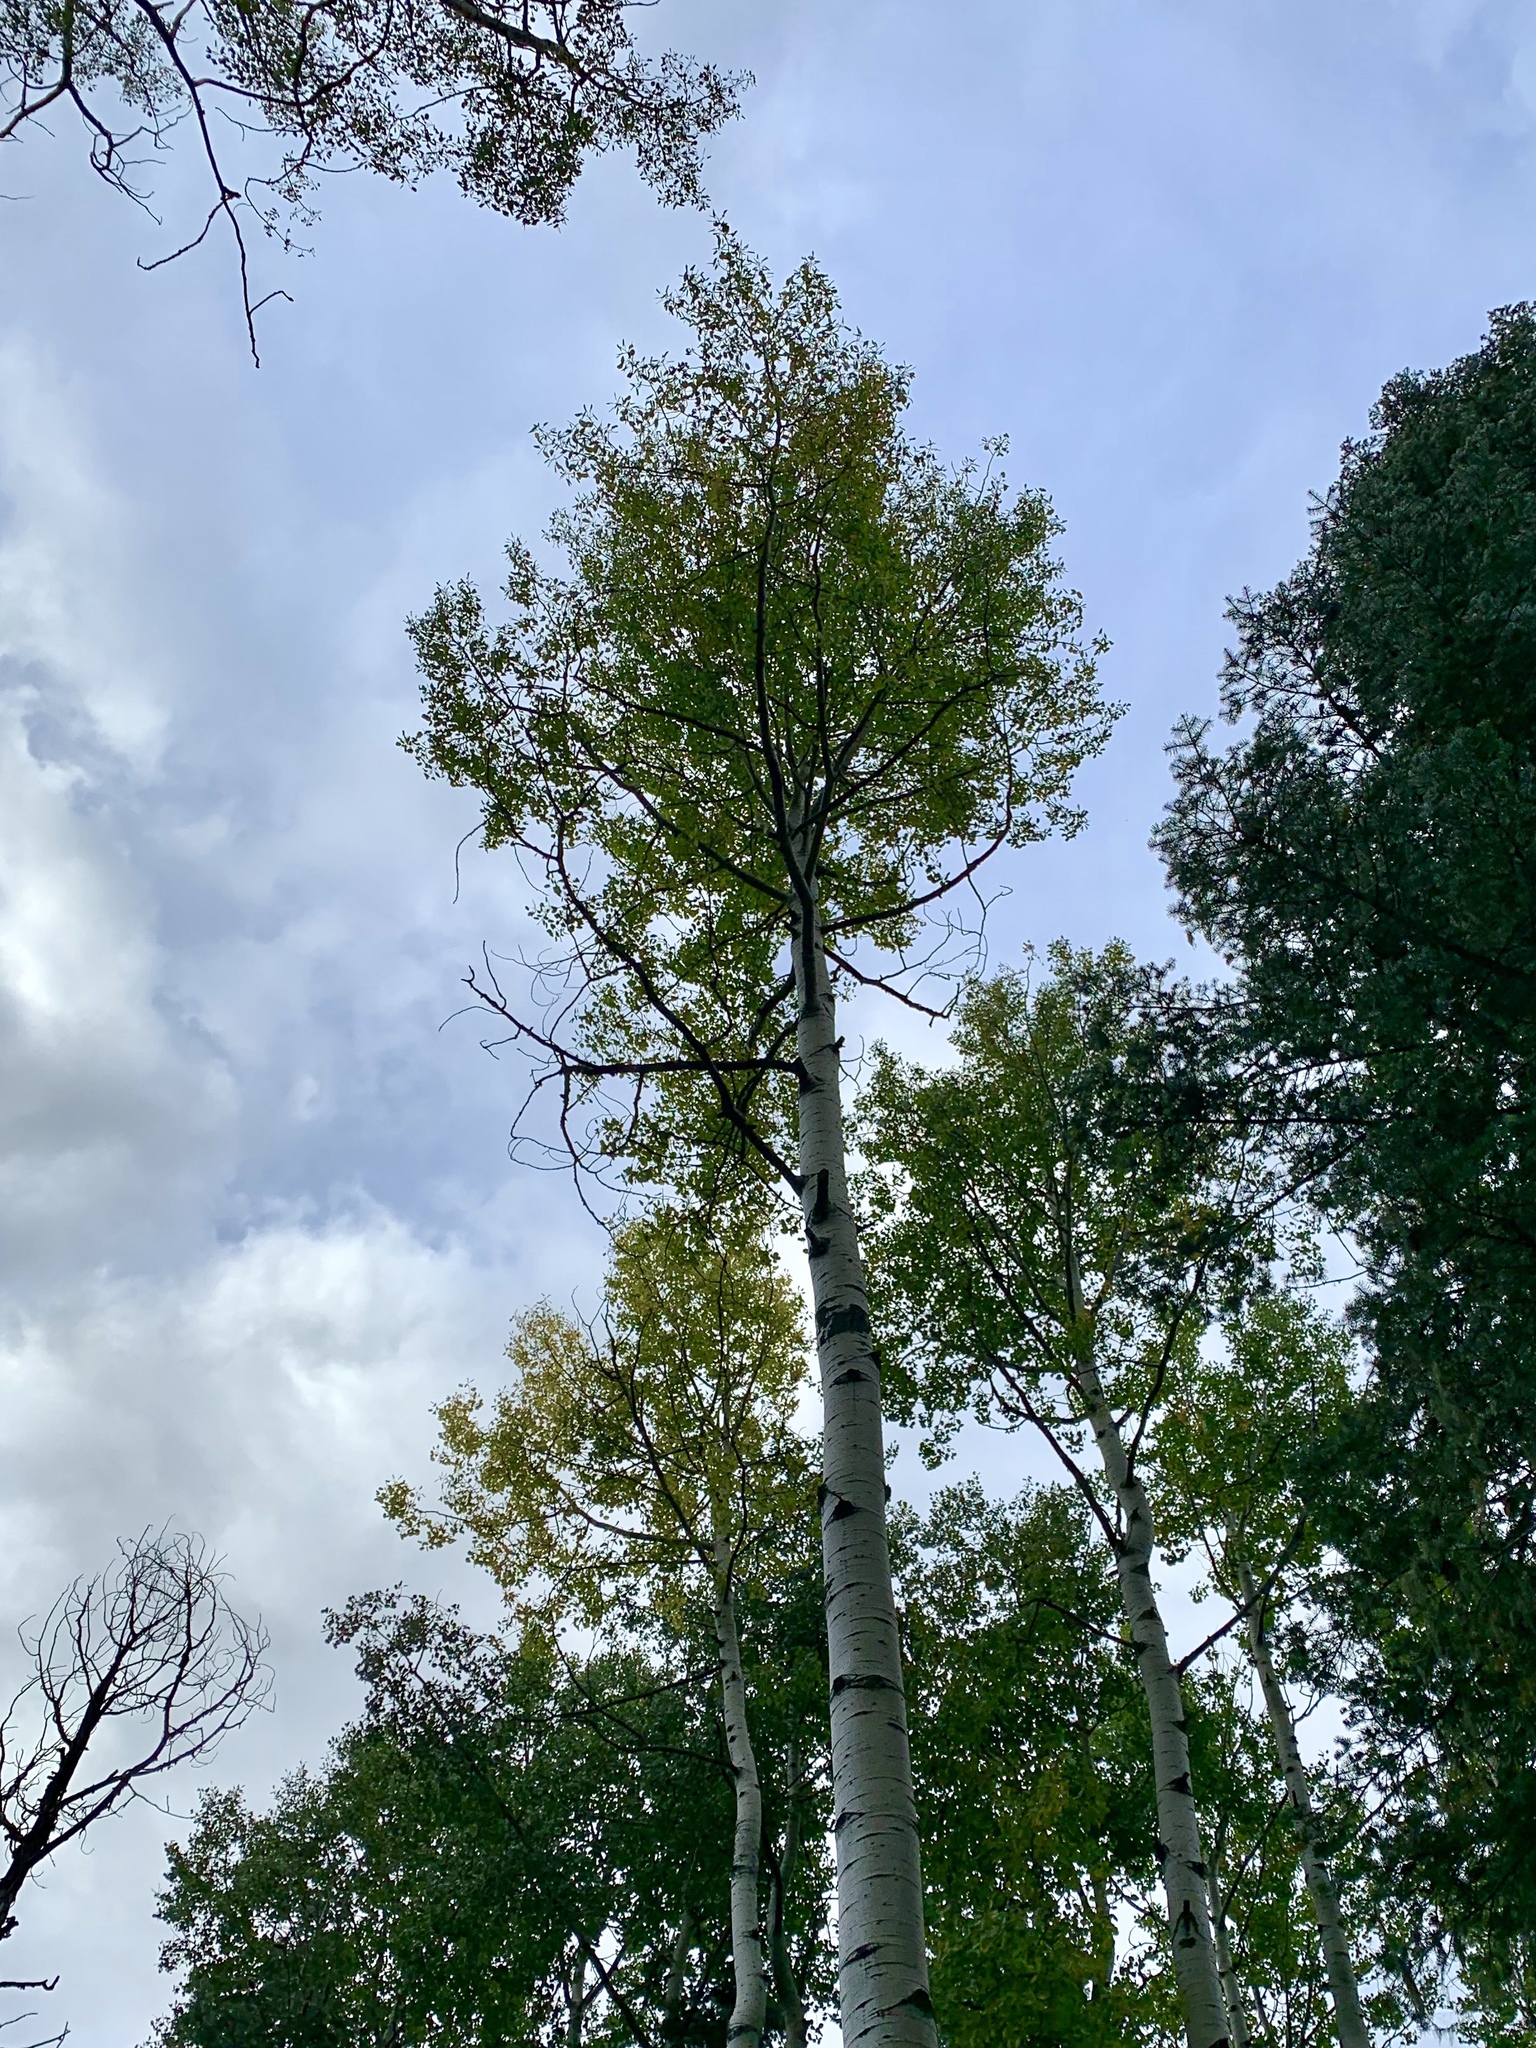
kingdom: Plantae
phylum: Tracheophyta
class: Magnoliopsida
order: Malpighiales
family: Salicaceae
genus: Populus
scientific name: Populus tremuloides
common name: Quaking aspen
